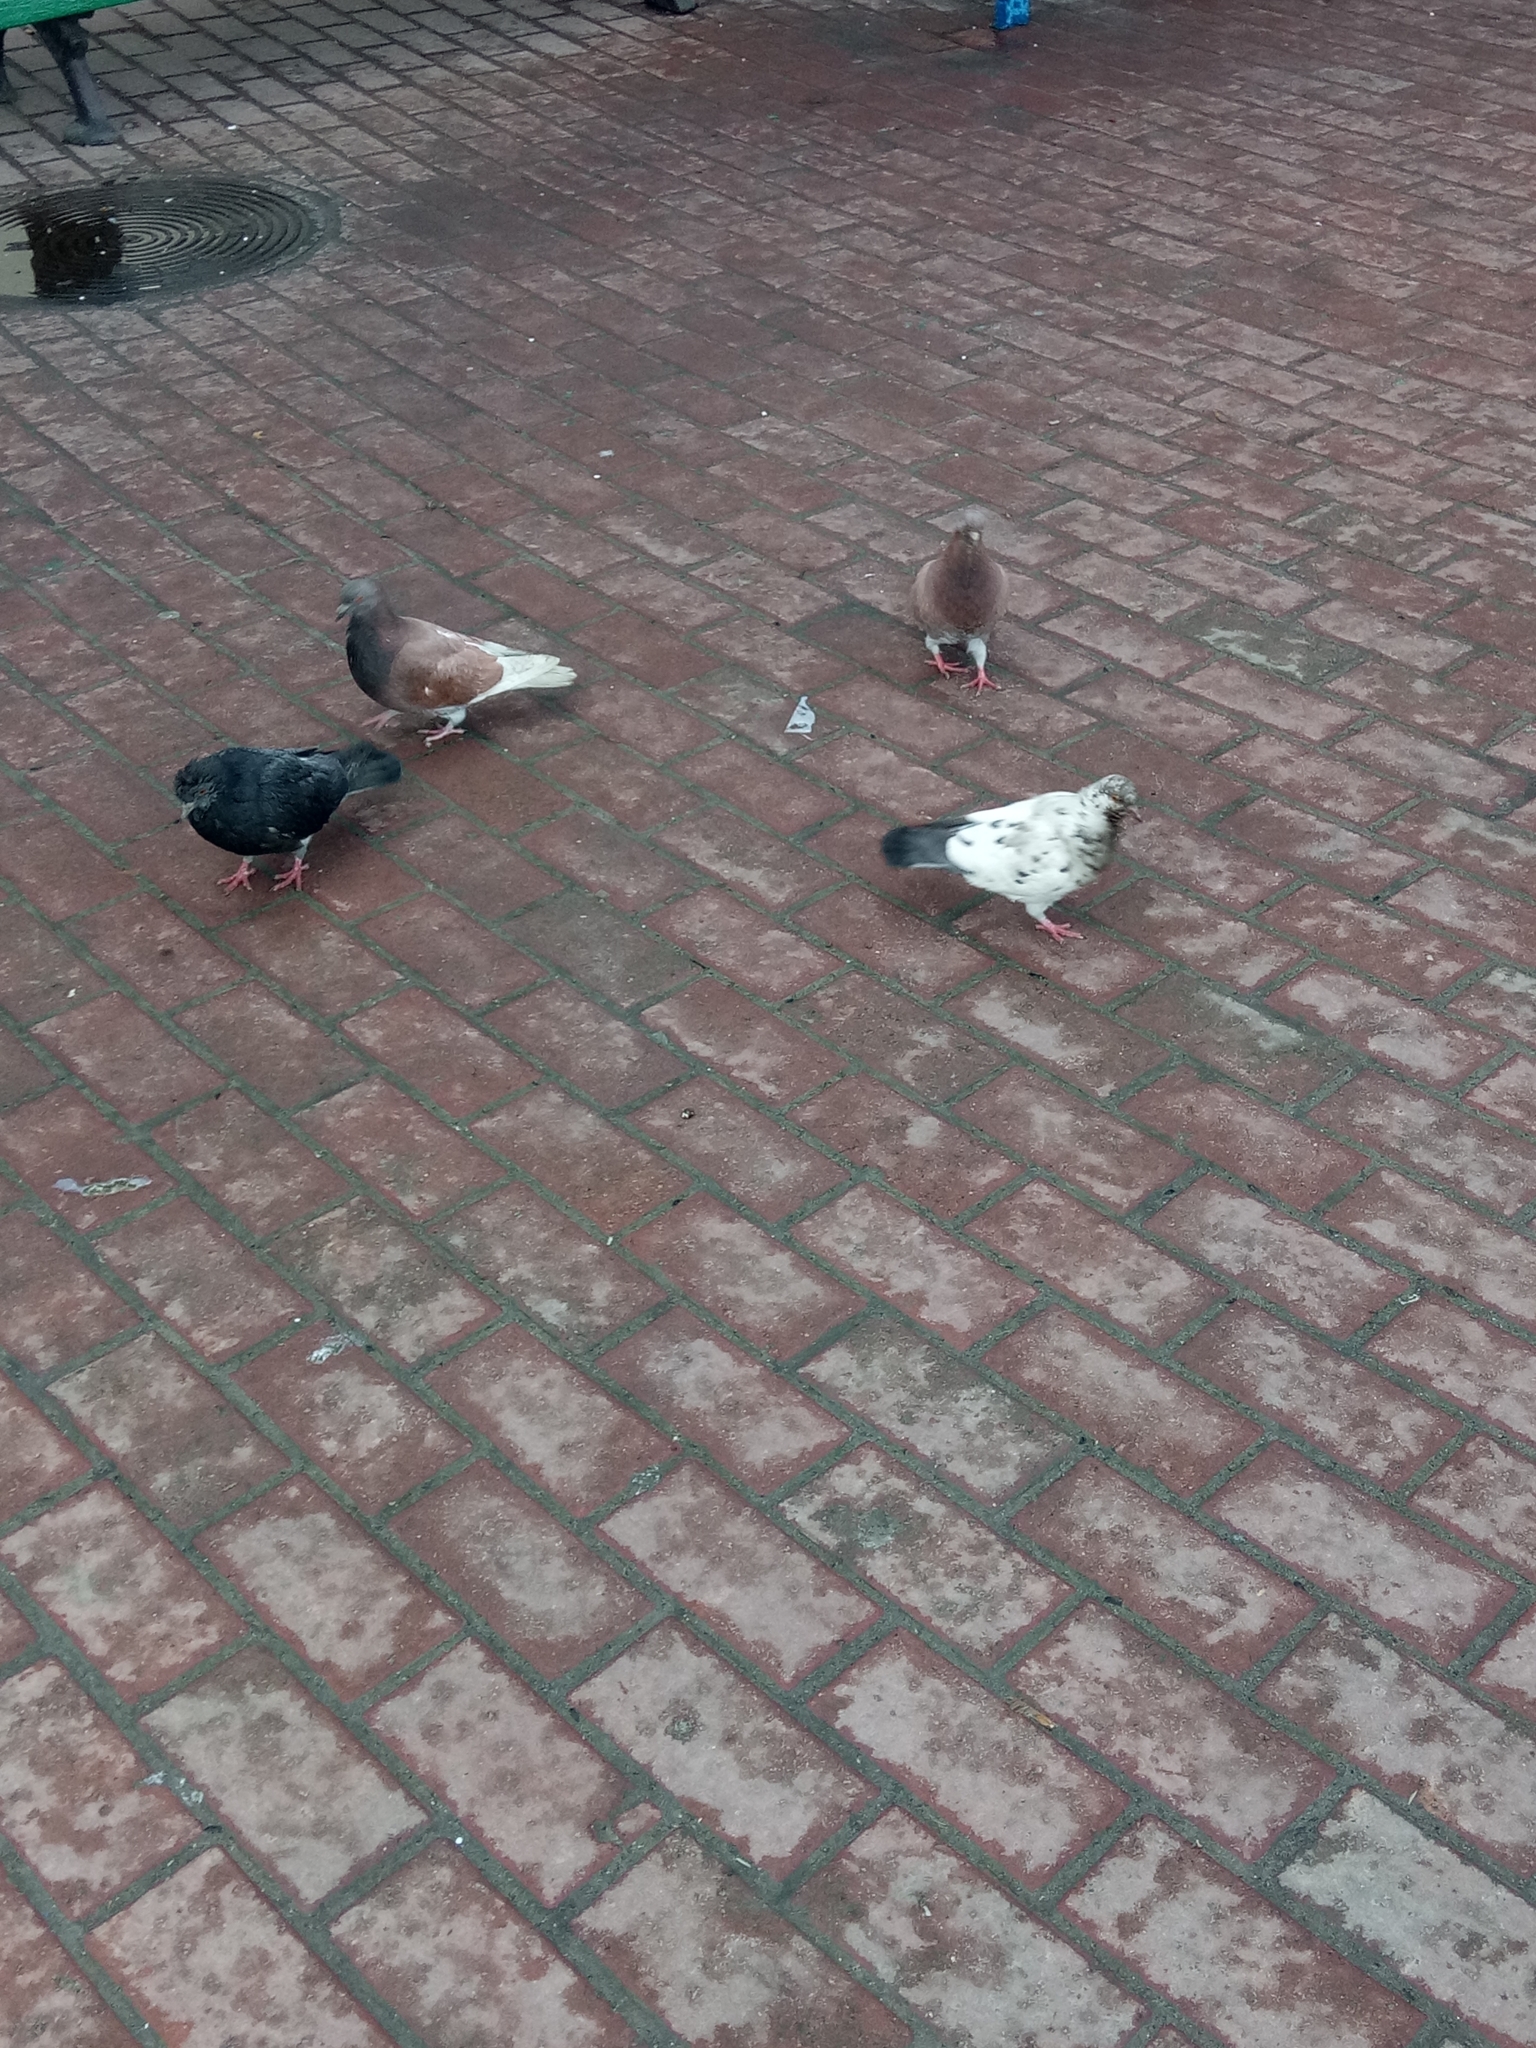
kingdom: Animalia
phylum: Chordata
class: Aves
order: Columbiformes
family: Columbidae
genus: Columba
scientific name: Columba livia
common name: Rock pigeon
